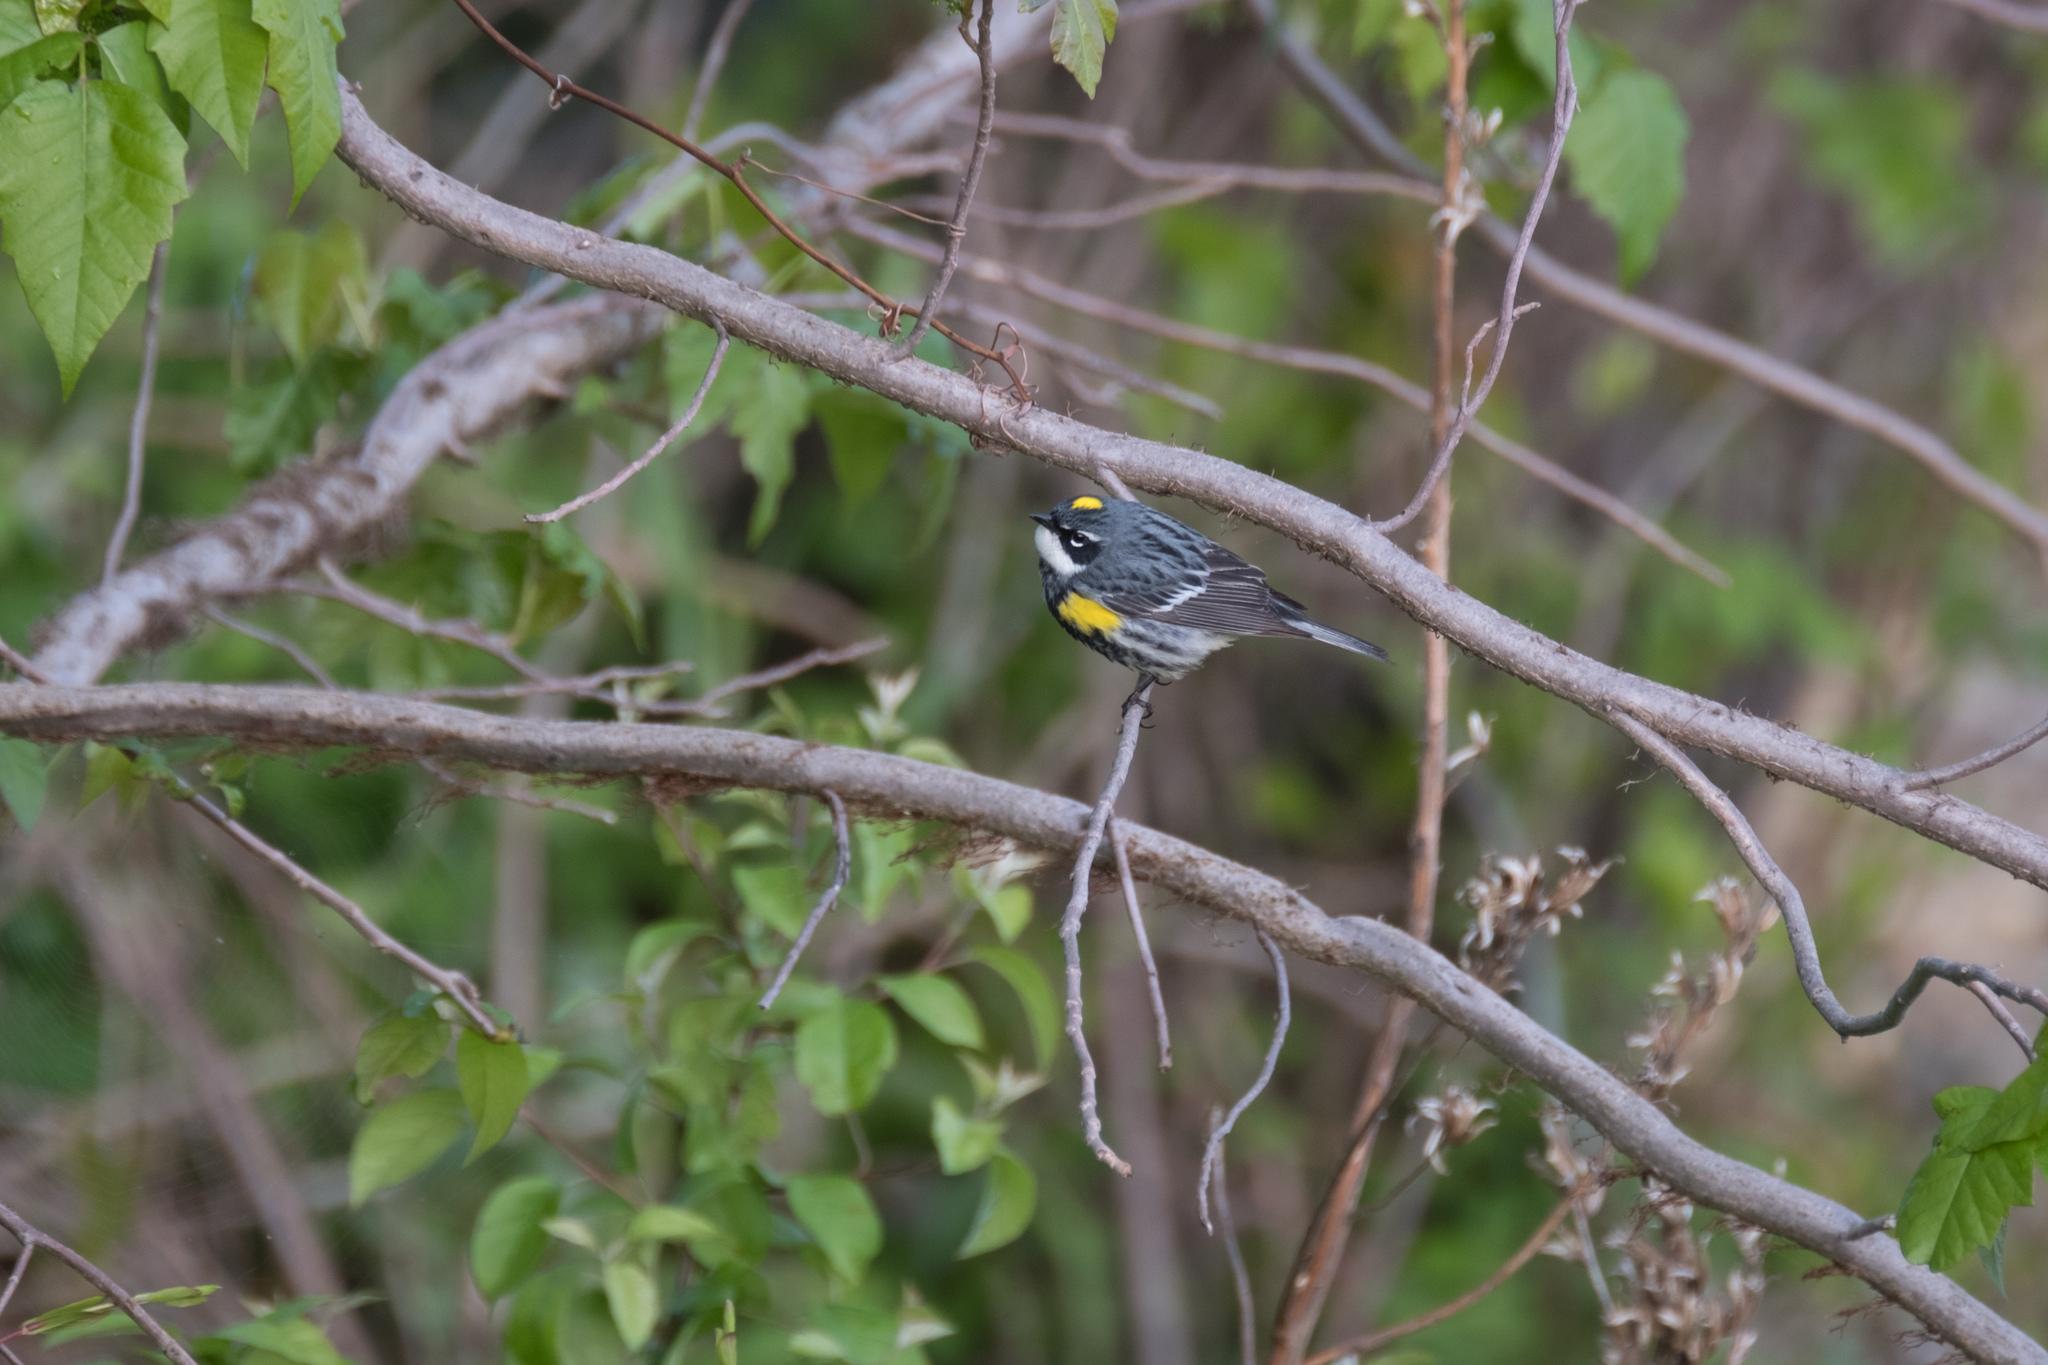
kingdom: Animalia
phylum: Chordata
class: Aves
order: Passeriformes
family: Parulidae
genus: Setophaga
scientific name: Setophaga coronata
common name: Myrtle warbler
